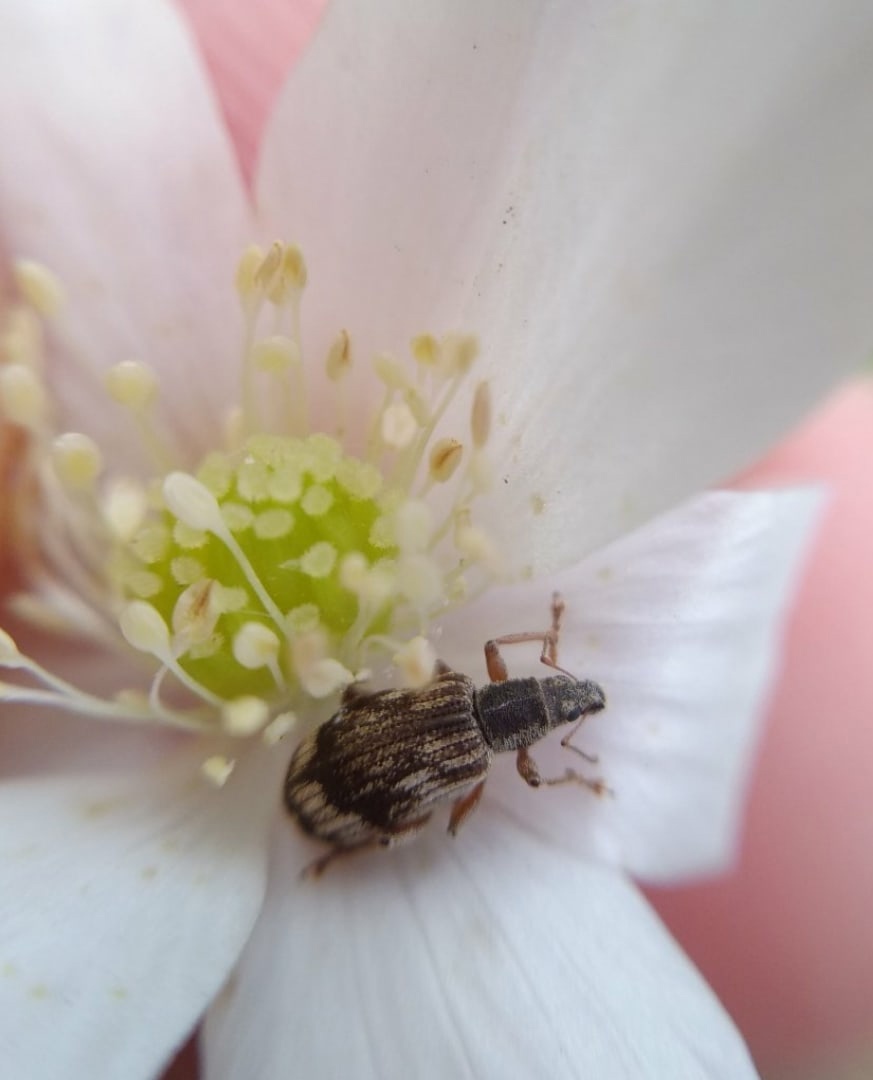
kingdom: Animalia
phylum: Arthropoda
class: Insecta
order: Coleoptera
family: Curculionidae
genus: Polydrusus
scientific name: Polydrusus tereticollis
